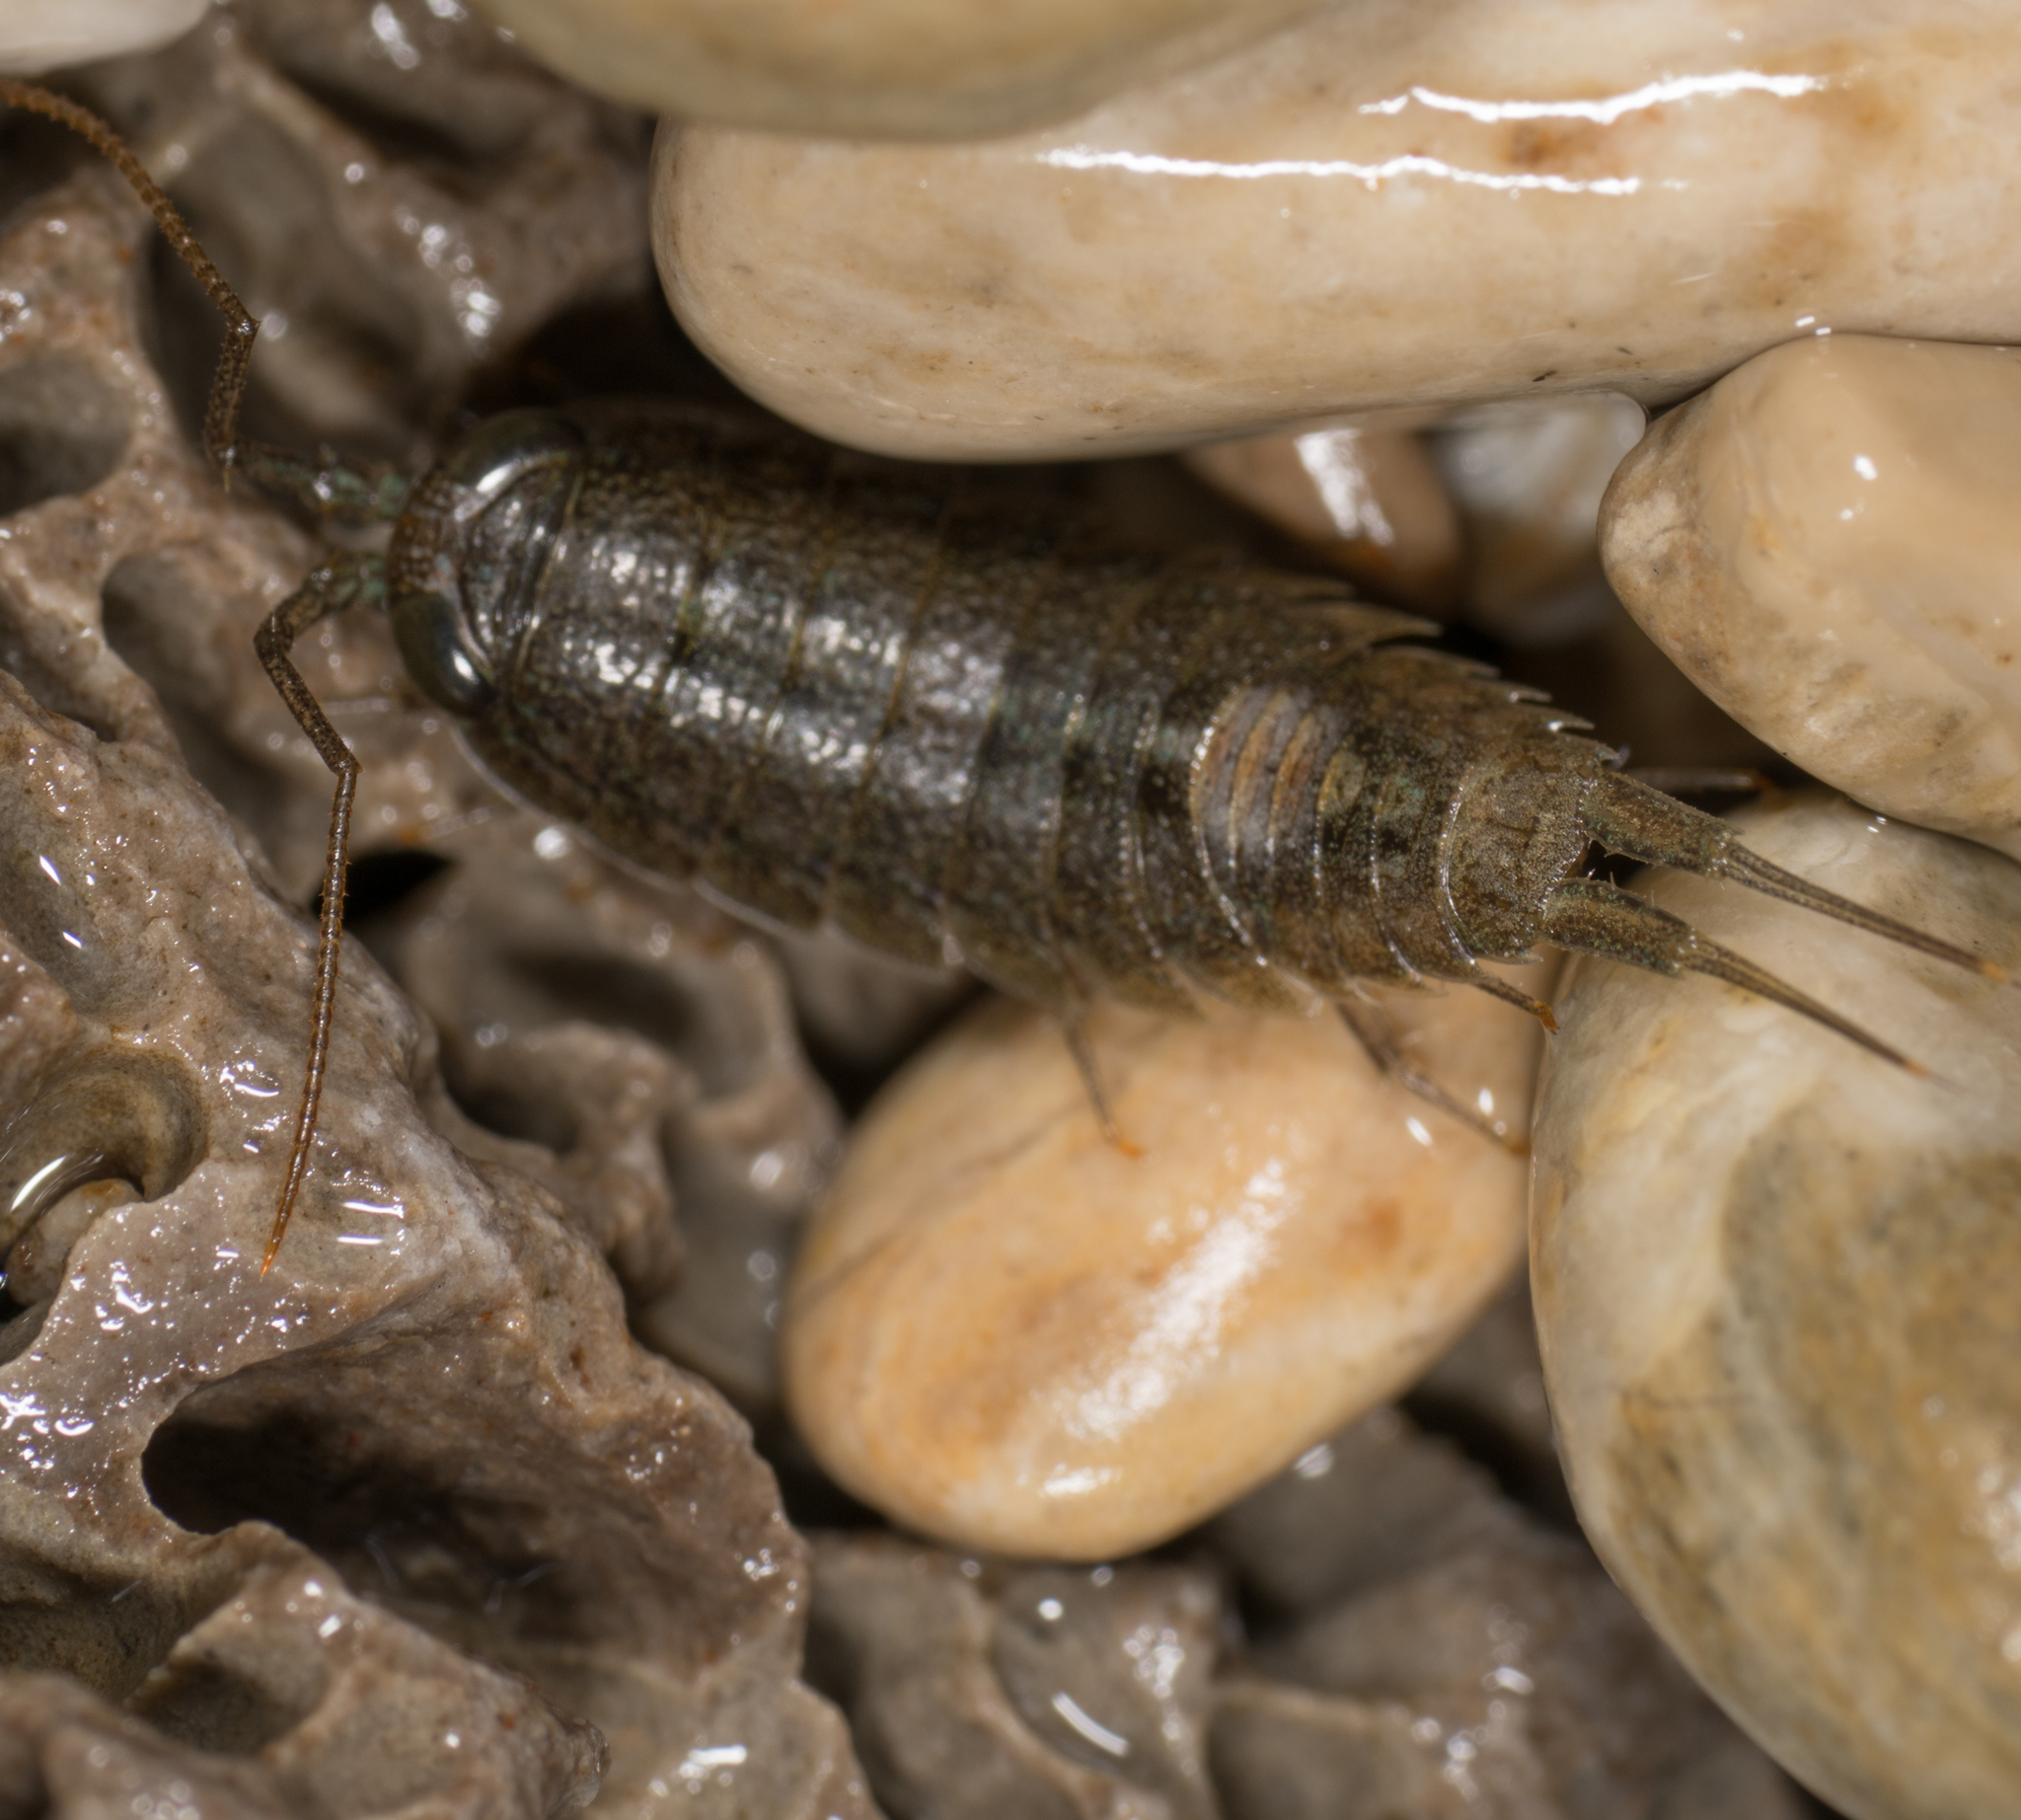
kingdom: Animalia
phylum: Arthropoda
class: Malacostraca
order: Isopoda
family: Ligiidae
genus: Ligia
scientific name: Ligia occidentalis
